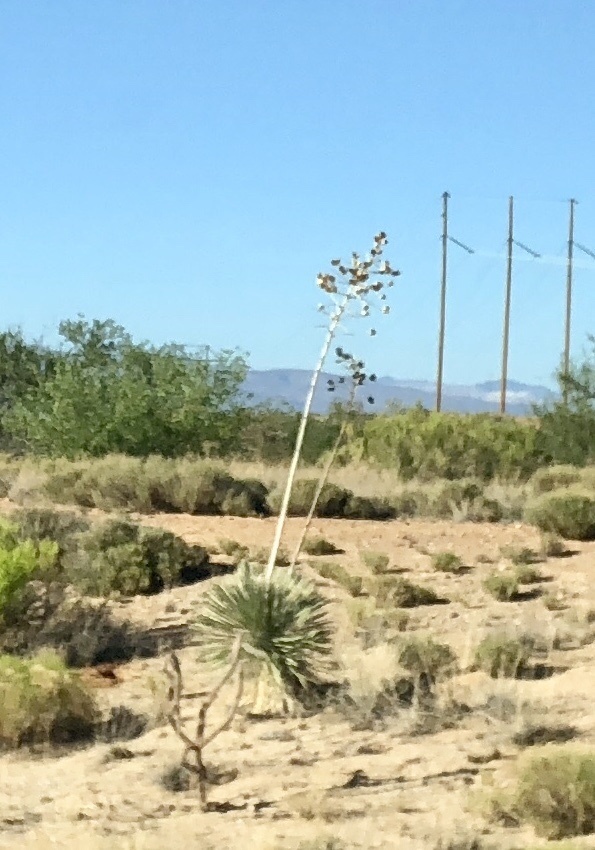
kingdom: Plantae
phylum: Tracheophyta
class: Liliopsida
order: Asparagales
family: Asparagaceae
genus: Yucca
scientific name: Yucca elata
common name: Palmella
